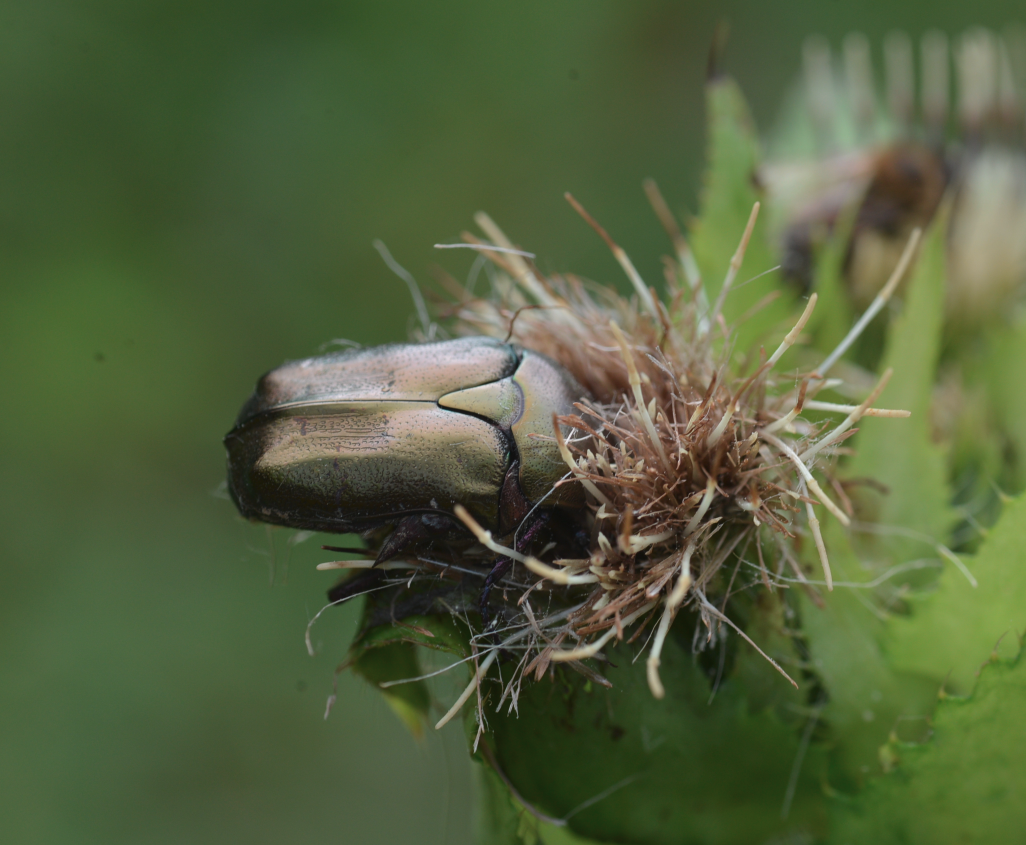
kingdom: Animalia
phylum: Arthropoda
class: Insecta
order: Coleoptera
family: Scarabaeidae
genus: Protaetia
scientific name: Protaetia cuprea
